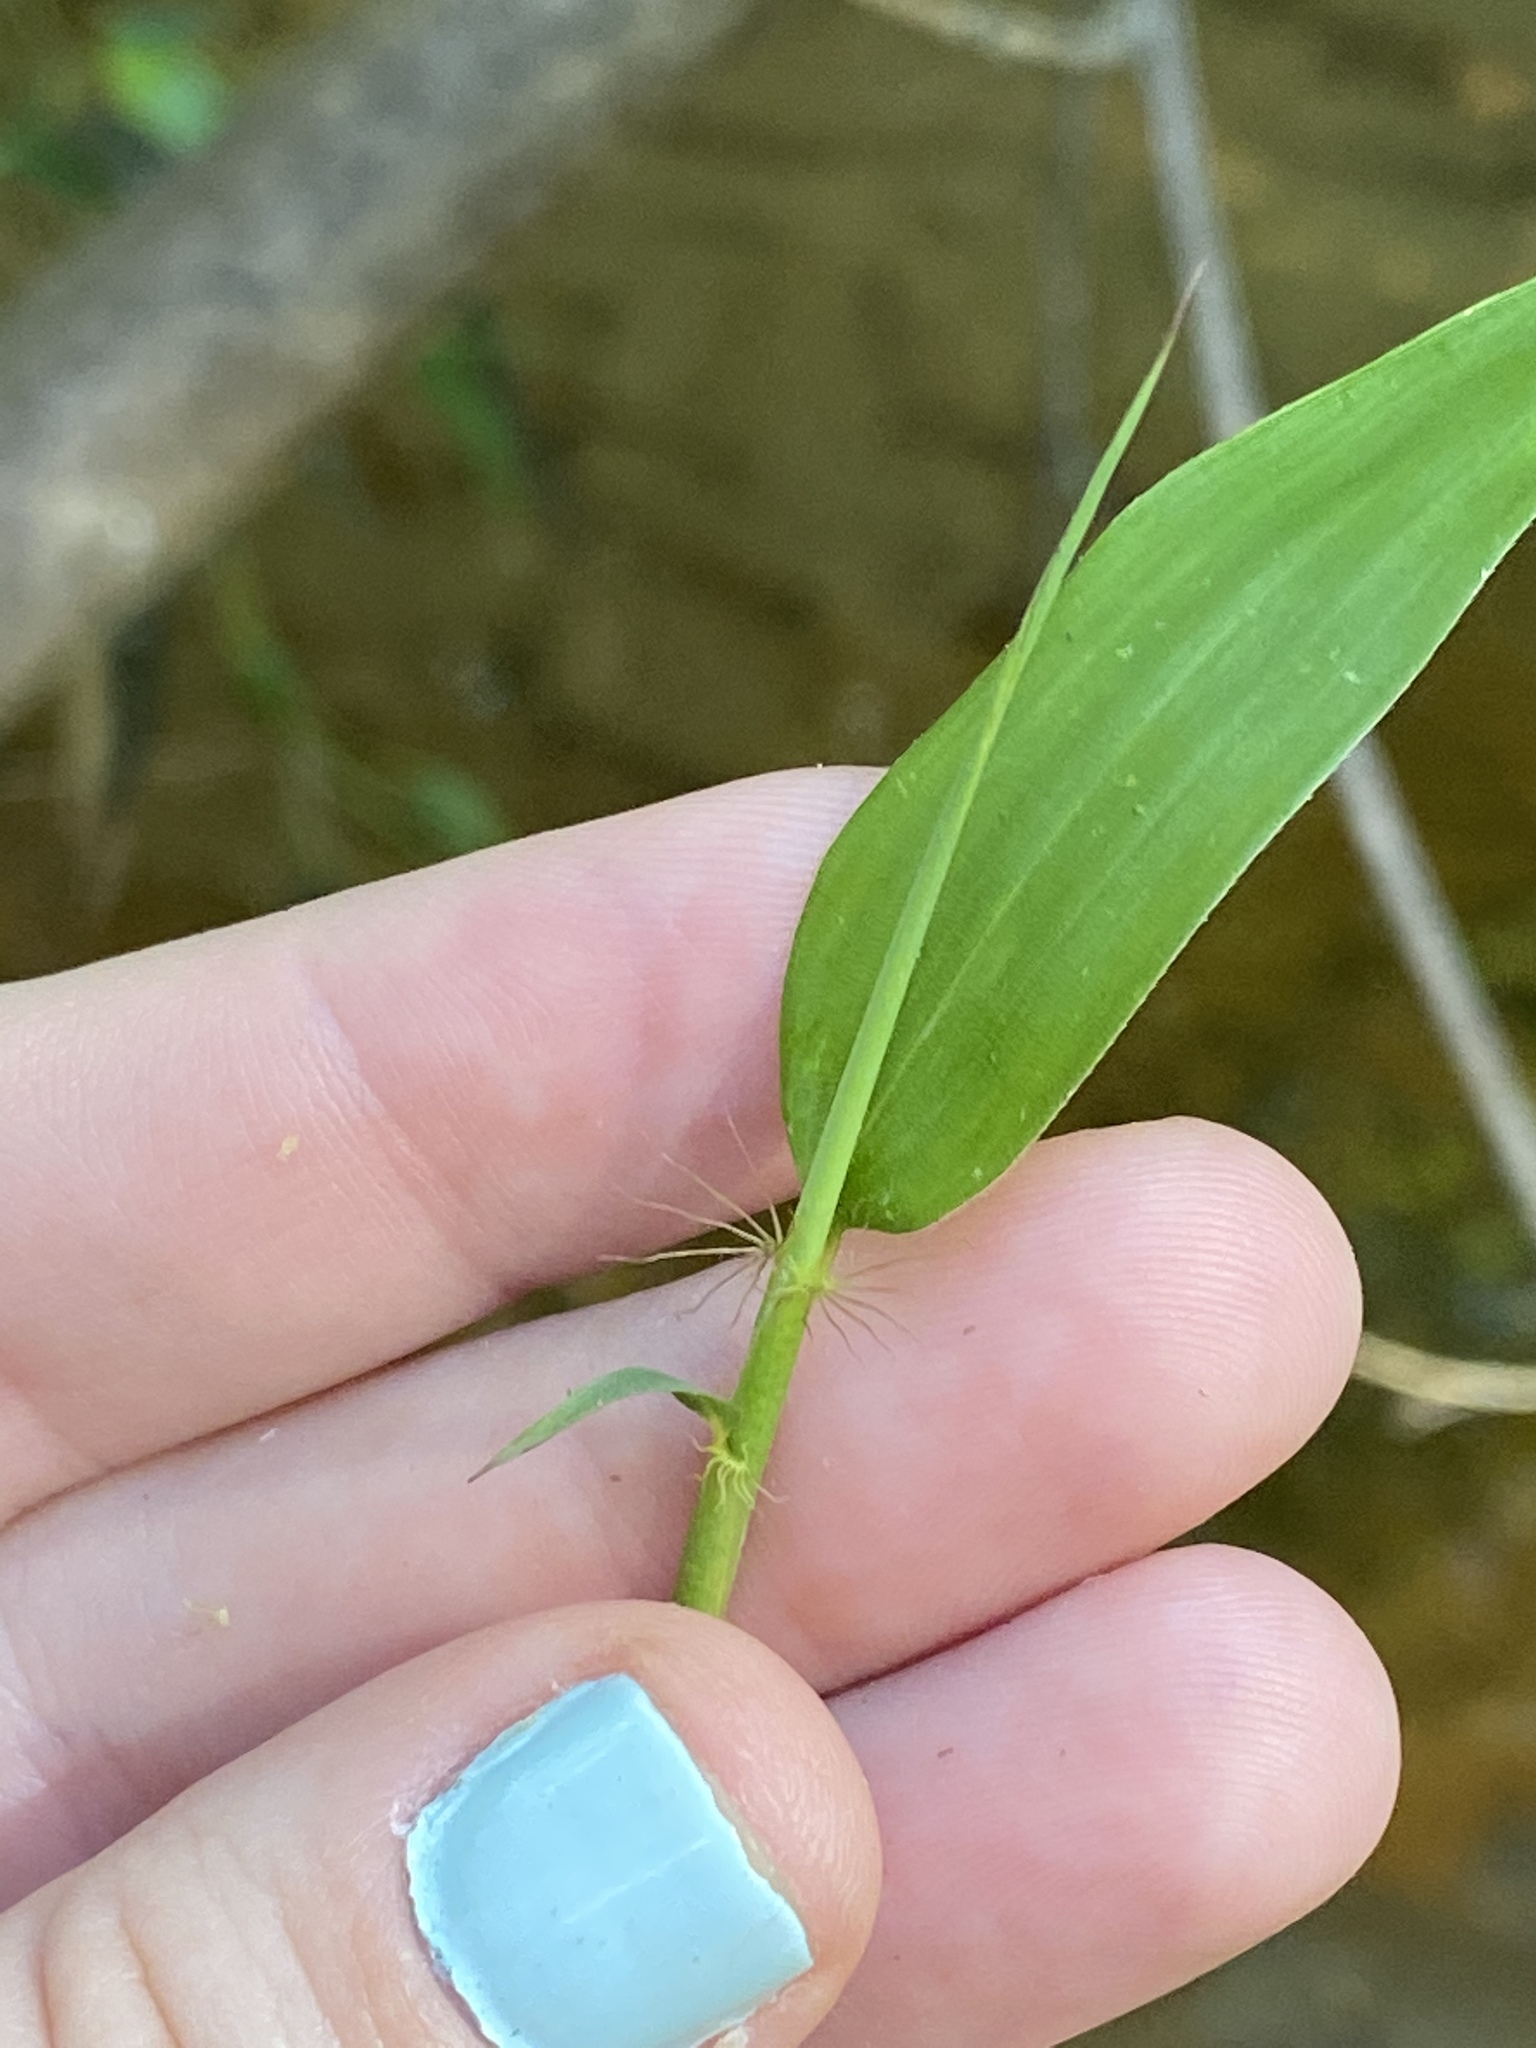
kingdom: Plantae
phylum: Tracheophyta
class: Liliopsida
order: Poales
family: Poaceae
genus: Phyllostachys
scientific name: Phyllostachys reticulata
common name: Bamboo
